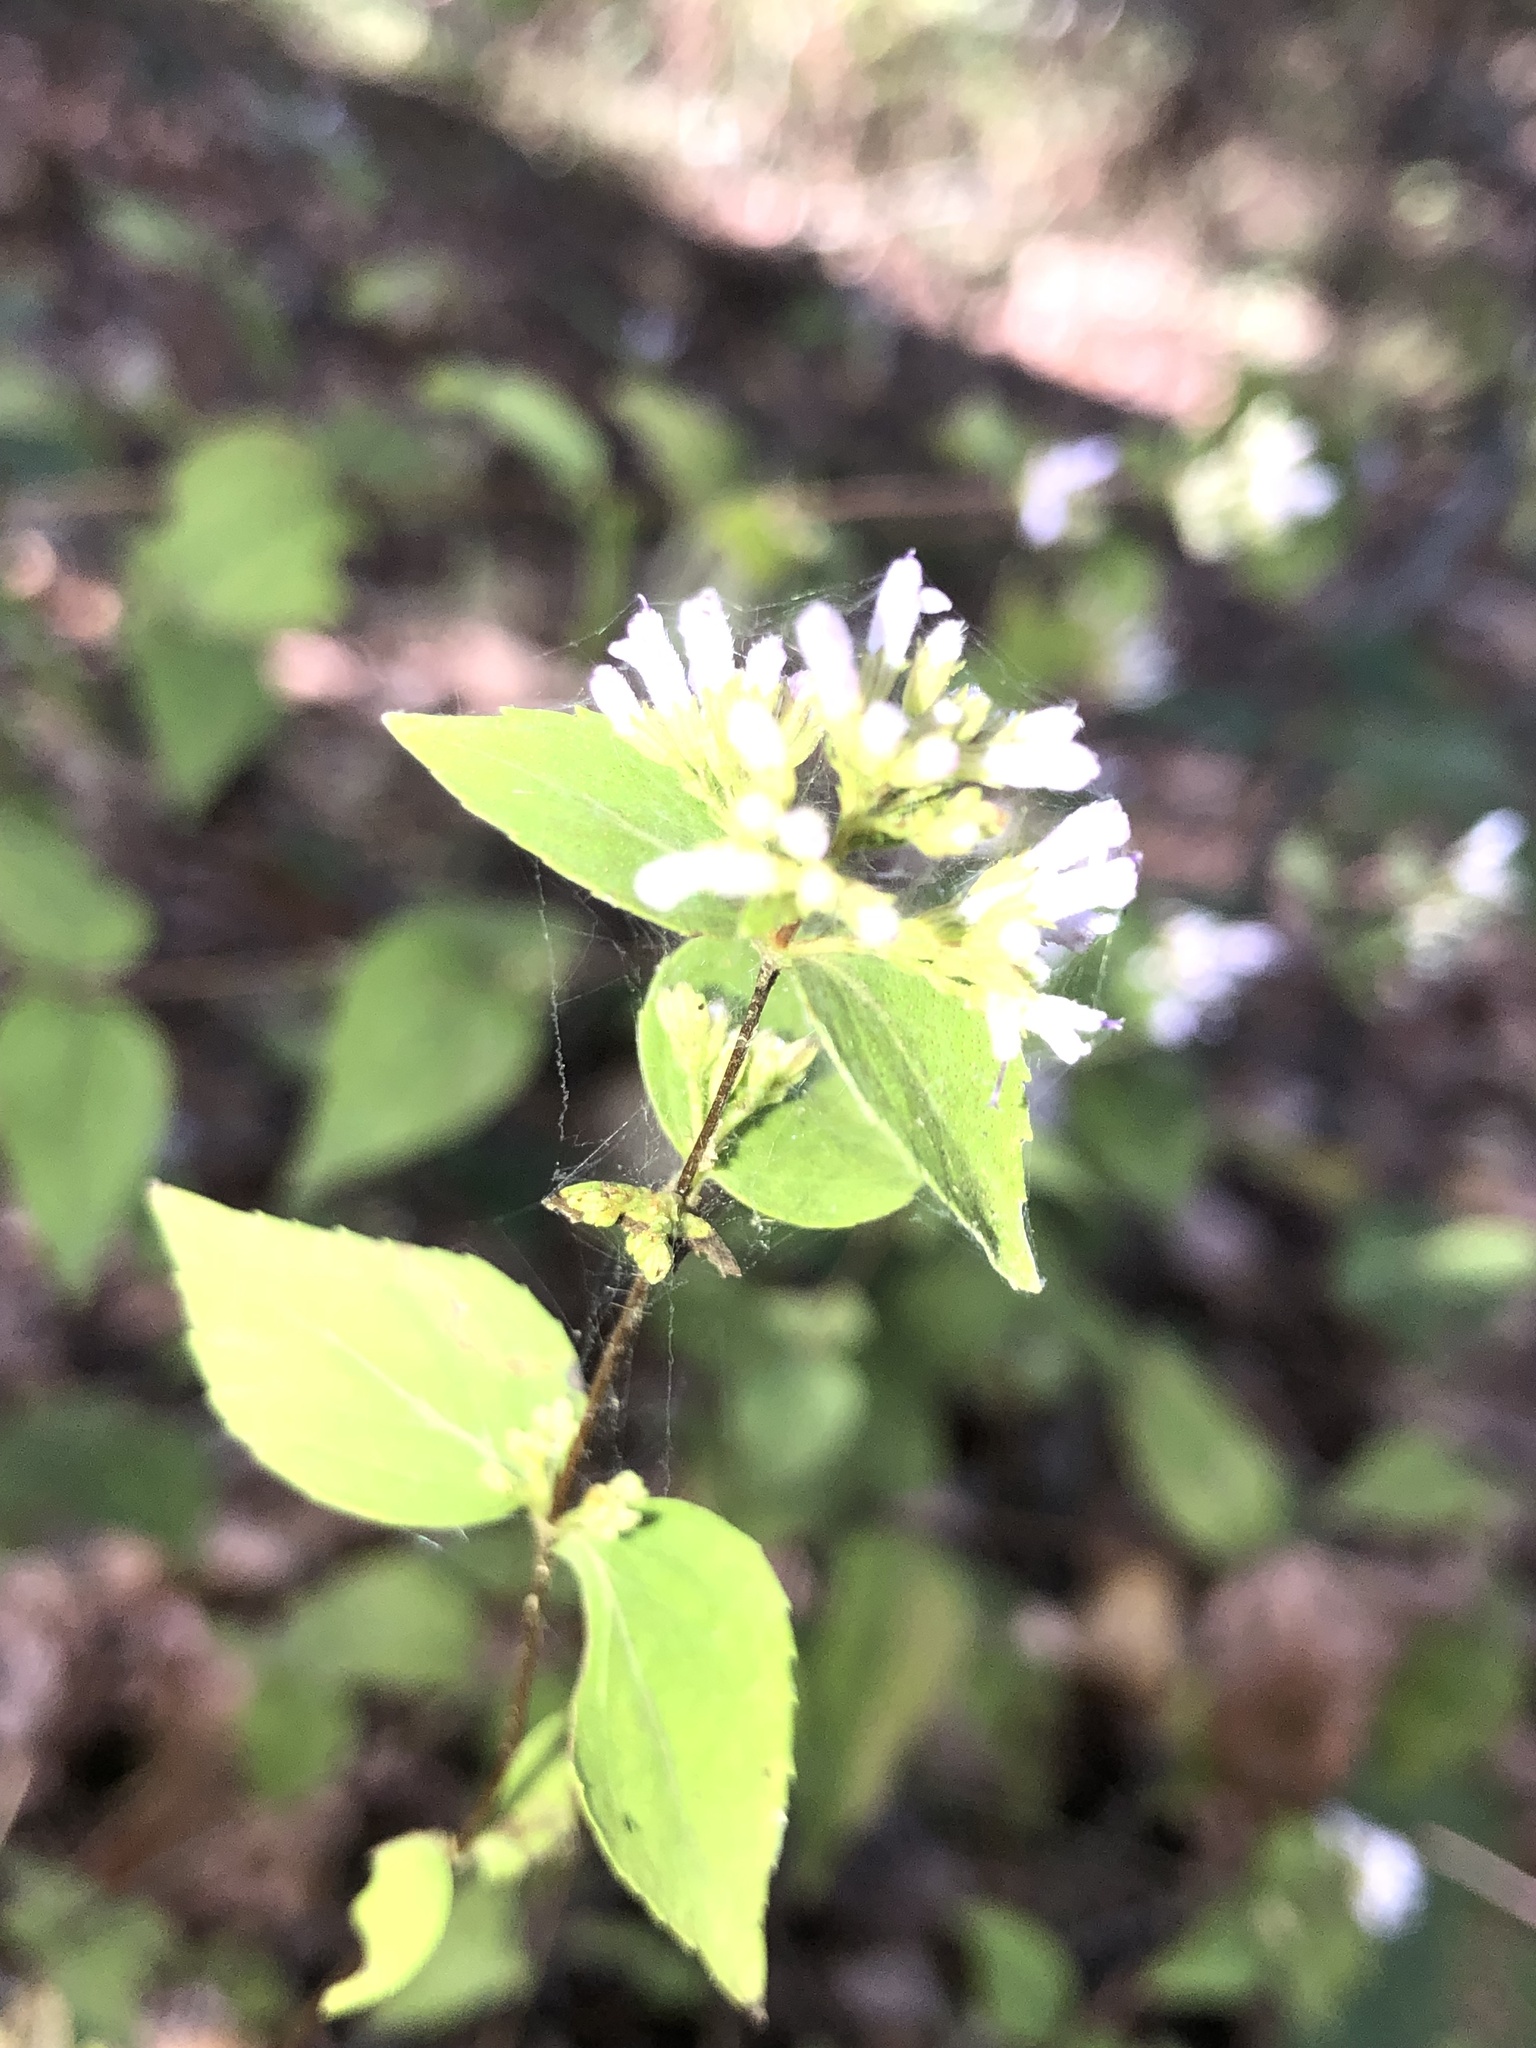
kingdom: Plantae
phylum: Tracheophyta
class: Magnoliopsida
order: Lamiales
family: Lamiaceae
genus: Cunila
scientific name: Cunila origanoides
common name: American dittany
